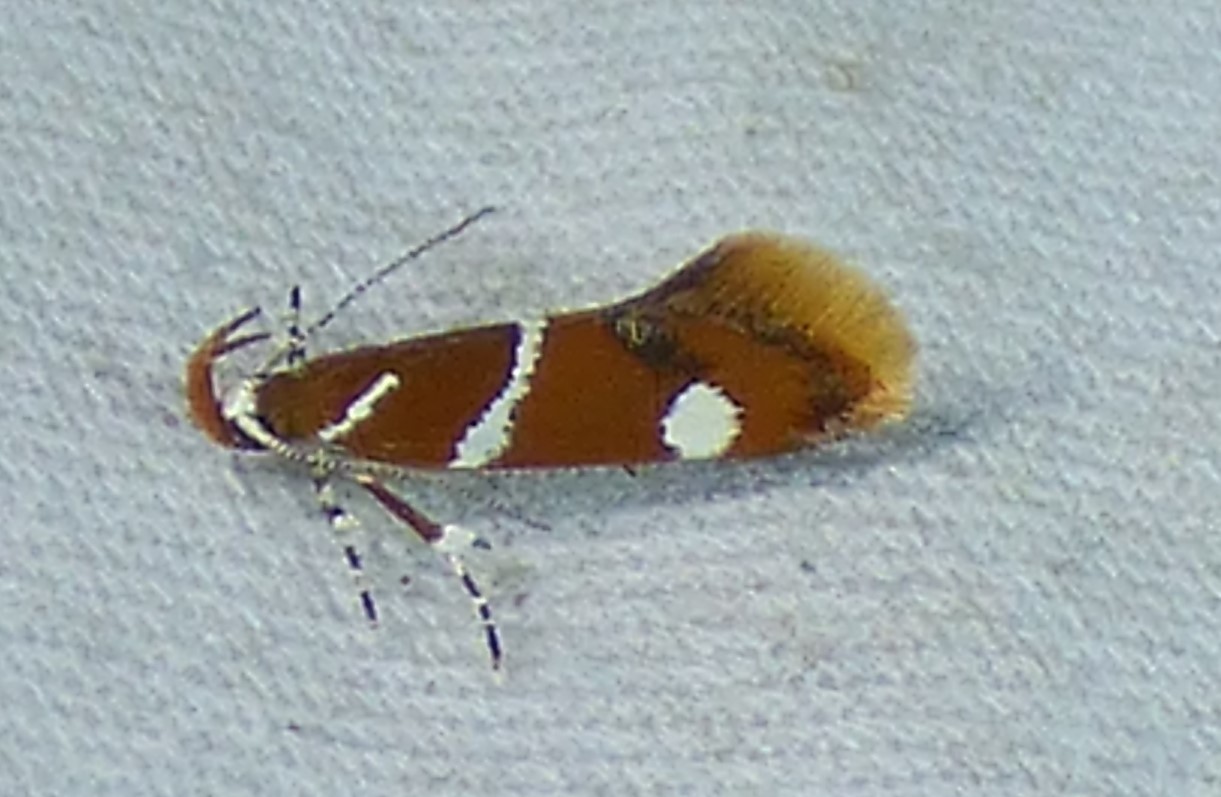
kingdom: Animalia
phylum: Arthropoda
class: Insecta
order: Lepidoptera
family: Oecophoridae
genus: Promalactis
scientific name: Promalactis suzukiella
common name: Moth
